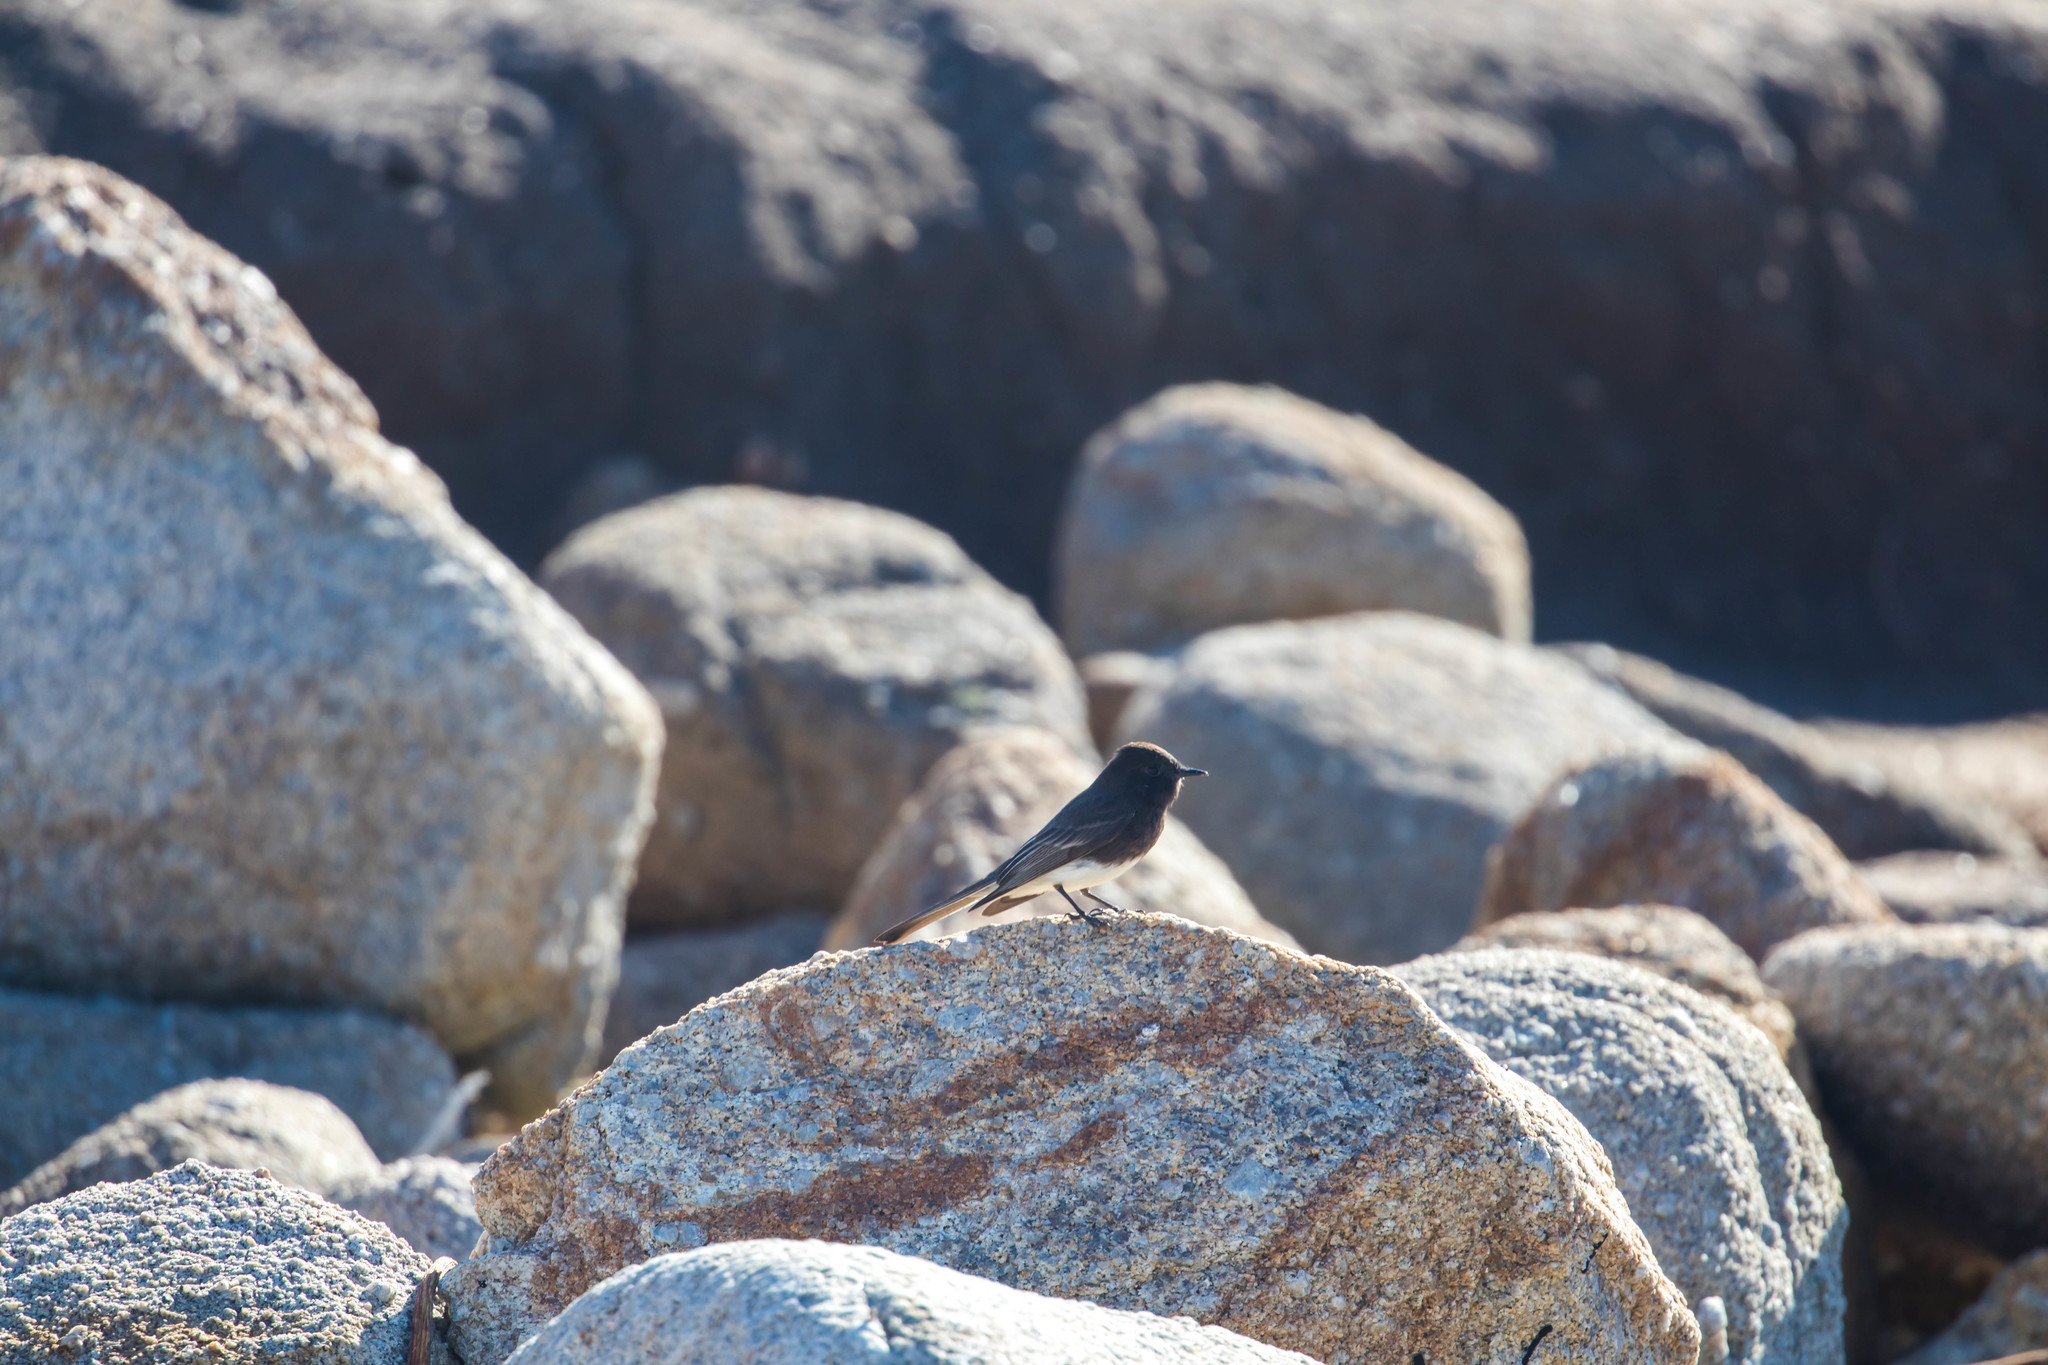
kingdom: Animalia
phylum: Chordata
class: Aves
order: Passeriformes
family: Tyrannidae
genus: Sayornis
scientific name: Sayornis nigricans
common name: Black phoebe
